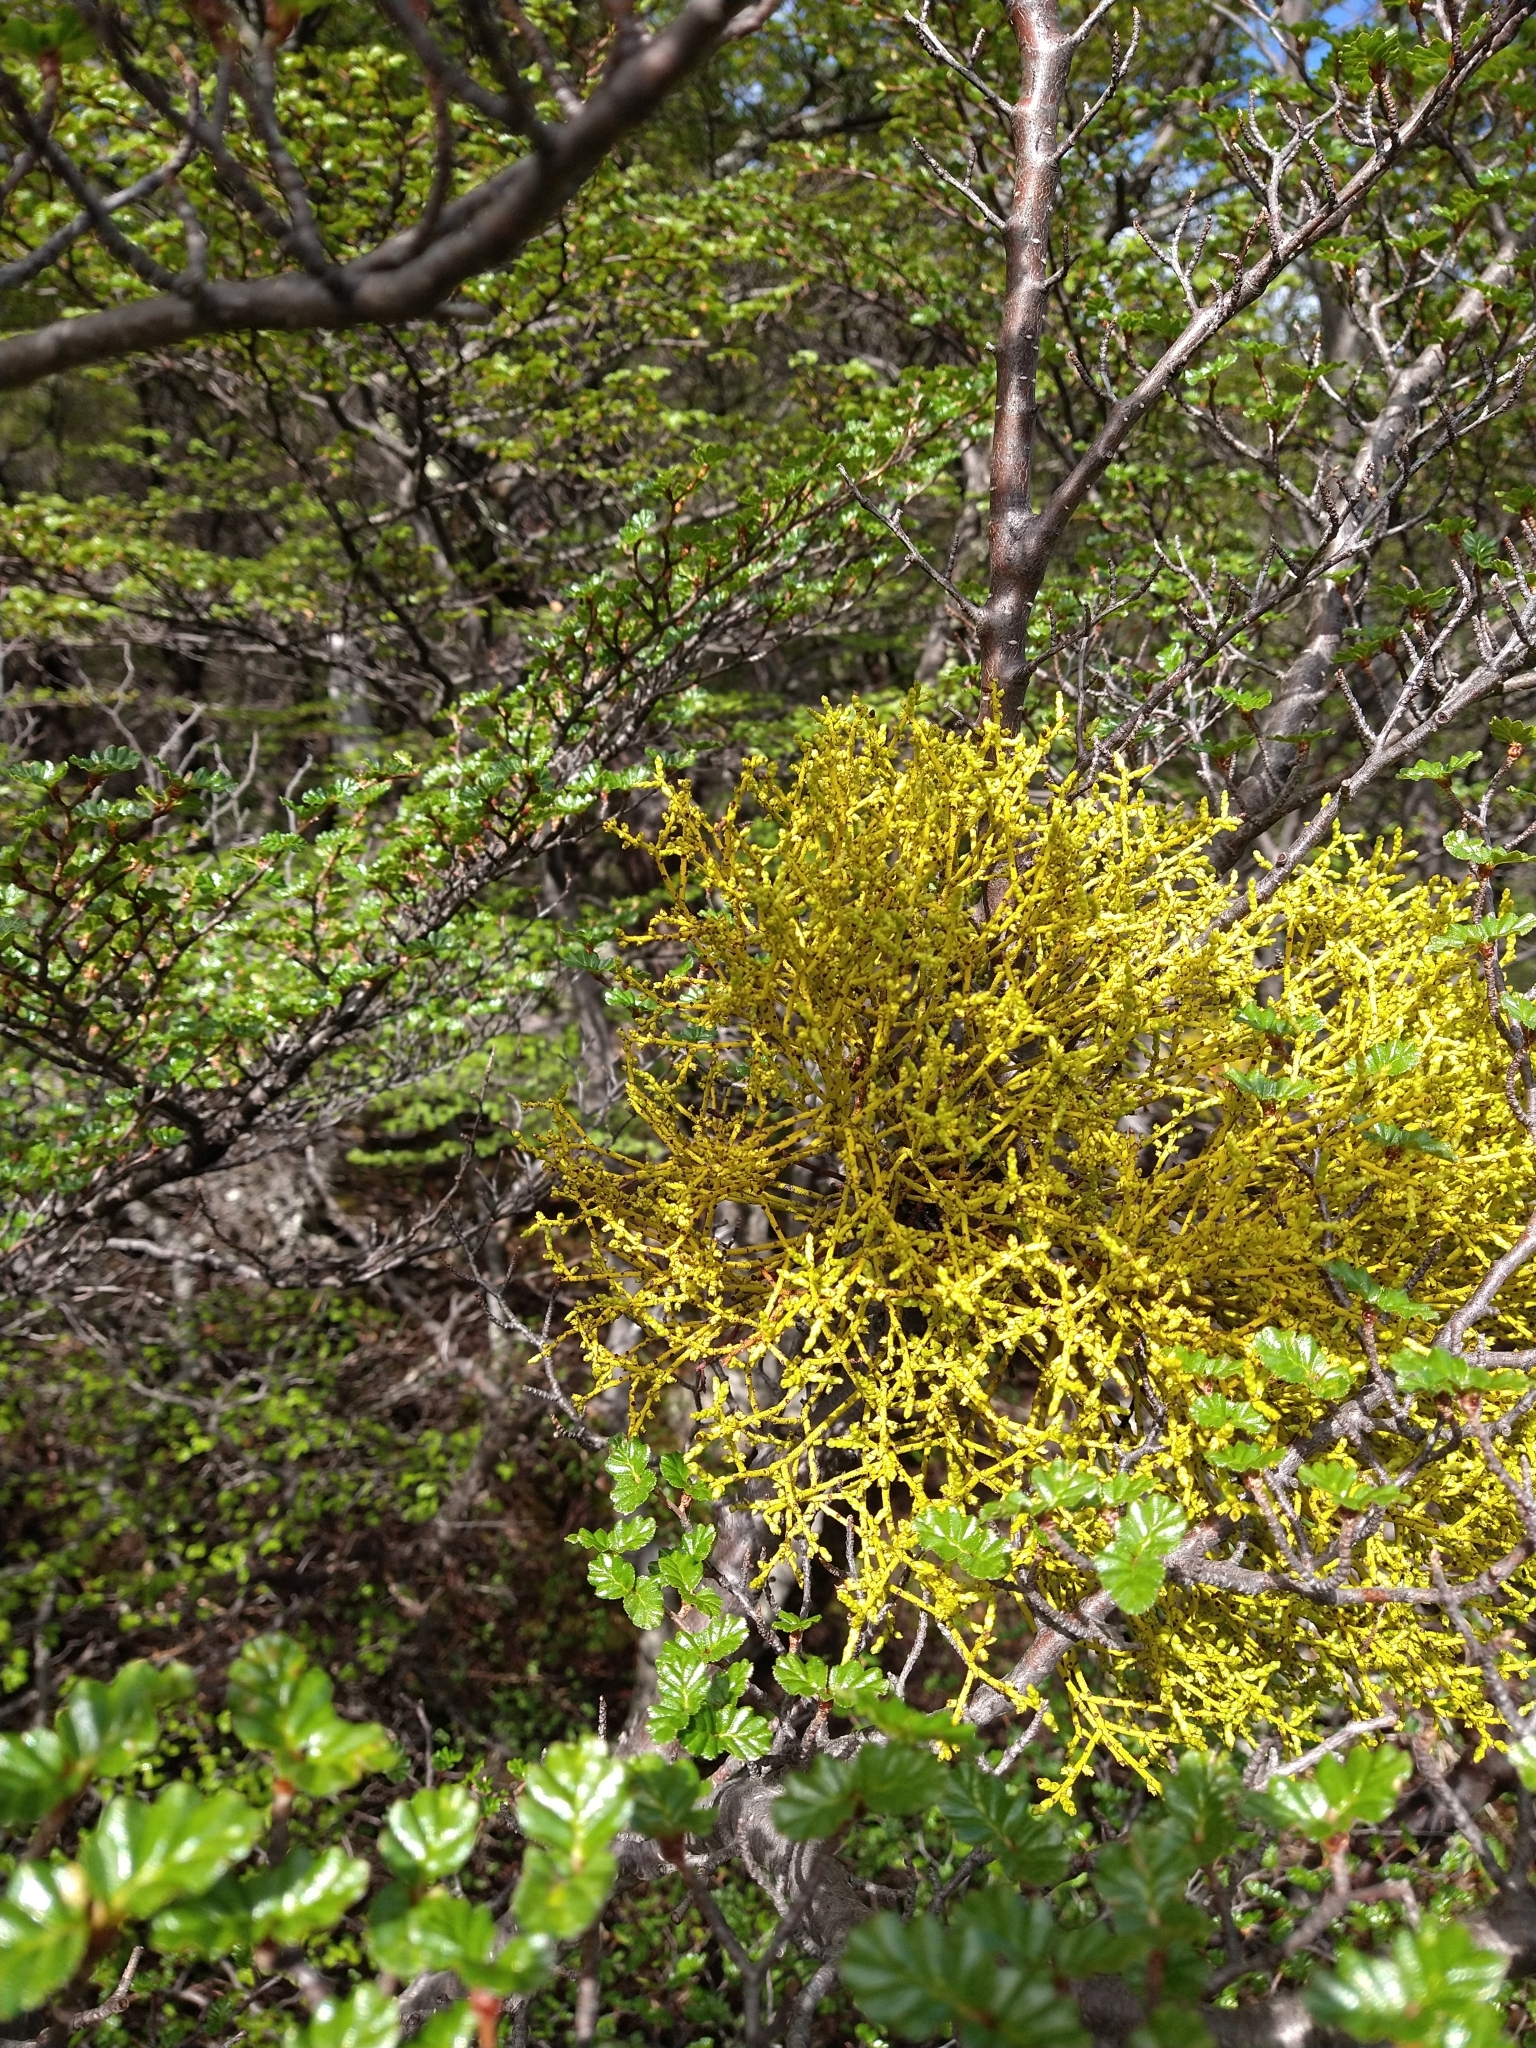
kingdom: Plantae
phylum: Tracheophyta
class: Magnoliopsida
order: Santalales
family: Misodendraceae
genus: Misodendrum
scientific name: Misodendrum punctulatum
